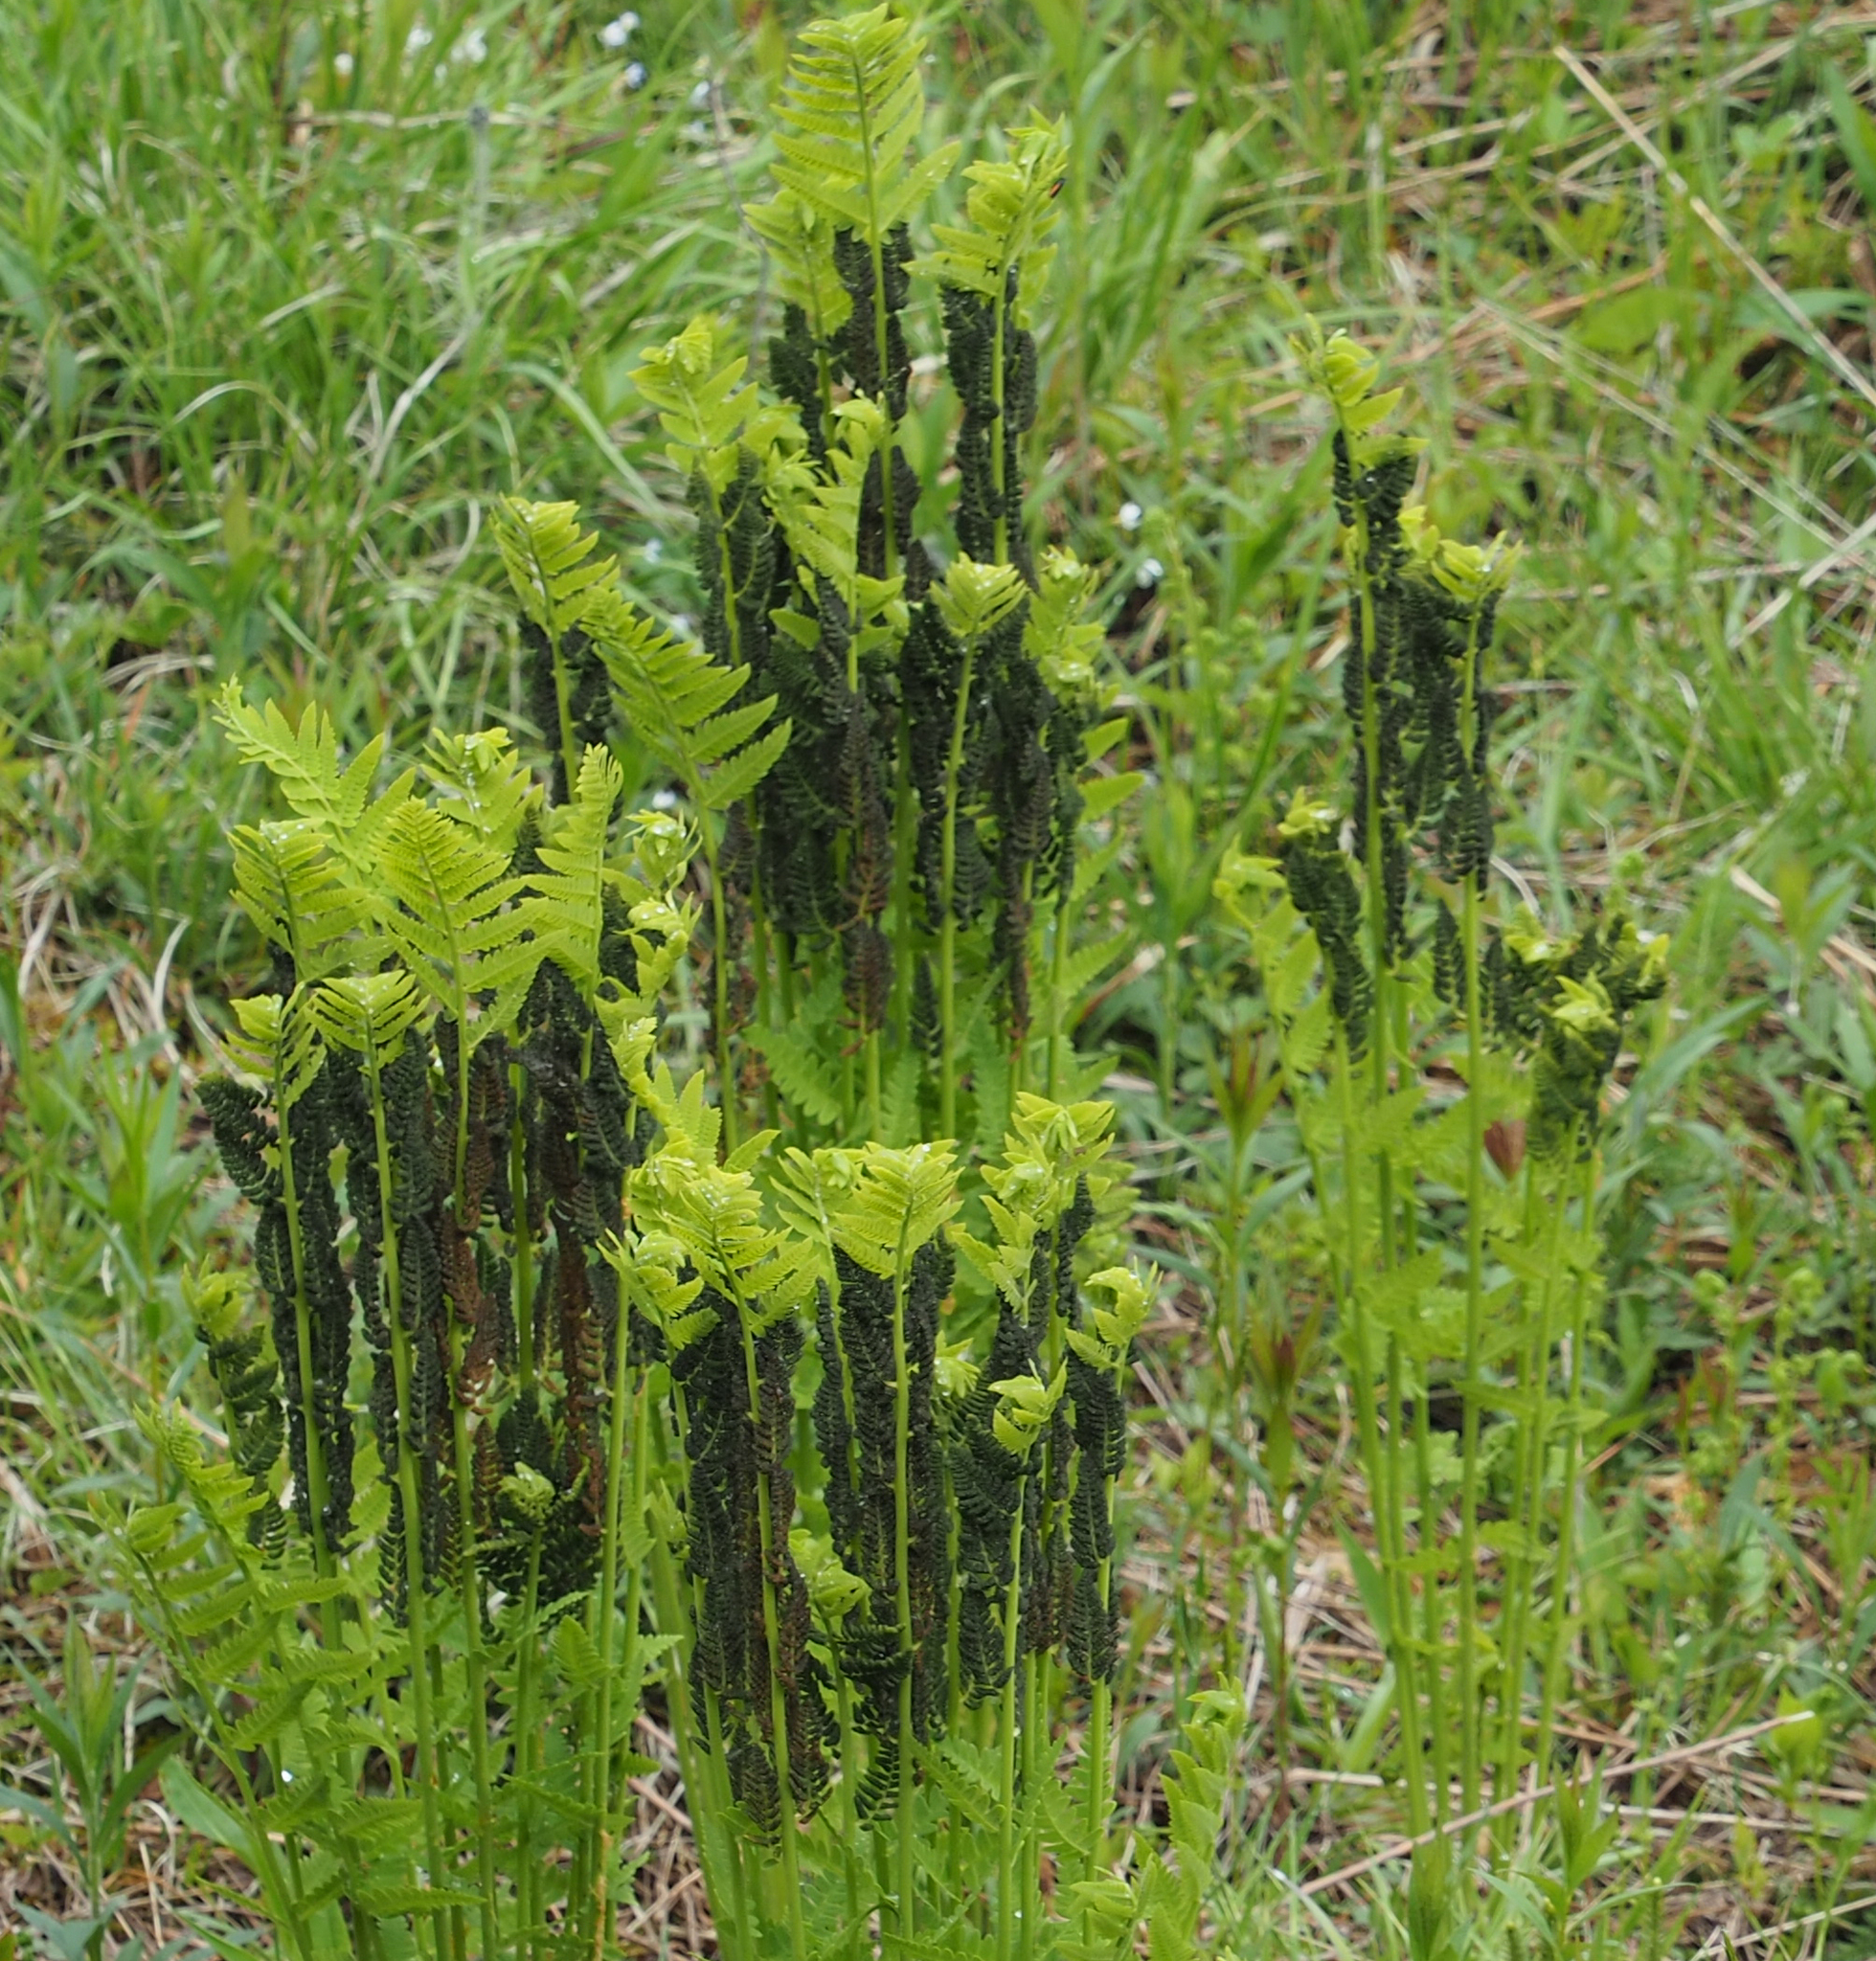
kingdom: Plantae
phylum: Tracheophyta
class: Polypodiopsida
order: Osmundales
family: Osmundaceae
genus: Claytosmunda
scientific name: Claytosmunda claytoniana
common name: Clayton's fern
